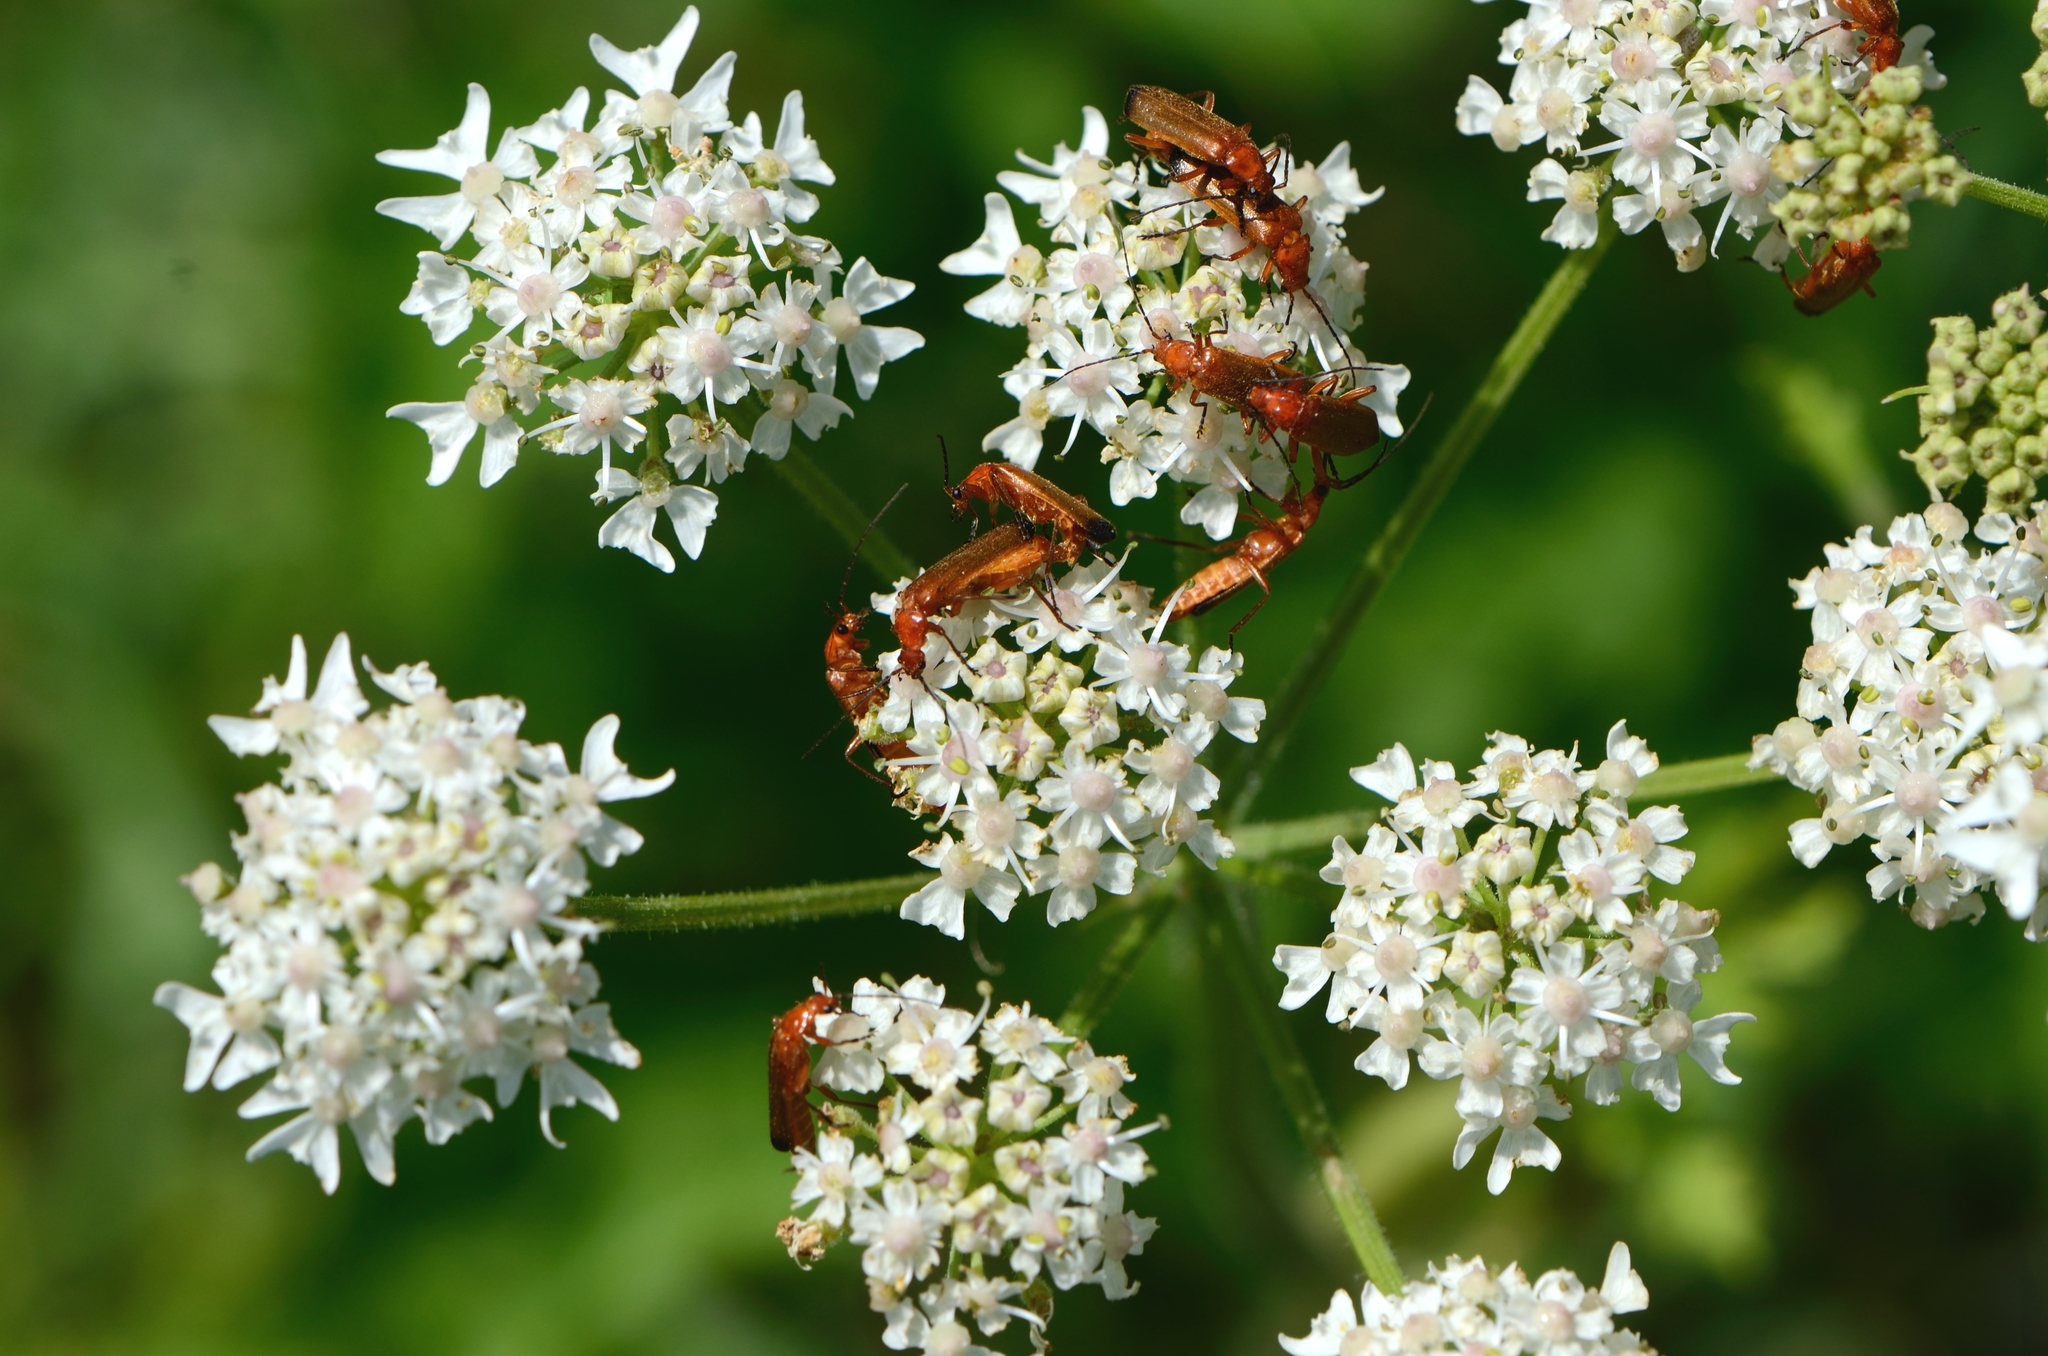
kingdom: Animalia
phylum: Arthropoda
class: Insecta
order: Coleoptera
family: Cantharidae
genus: Rhagonycha
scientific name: Rhagonycha fulva
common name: Common red soldier beetle
